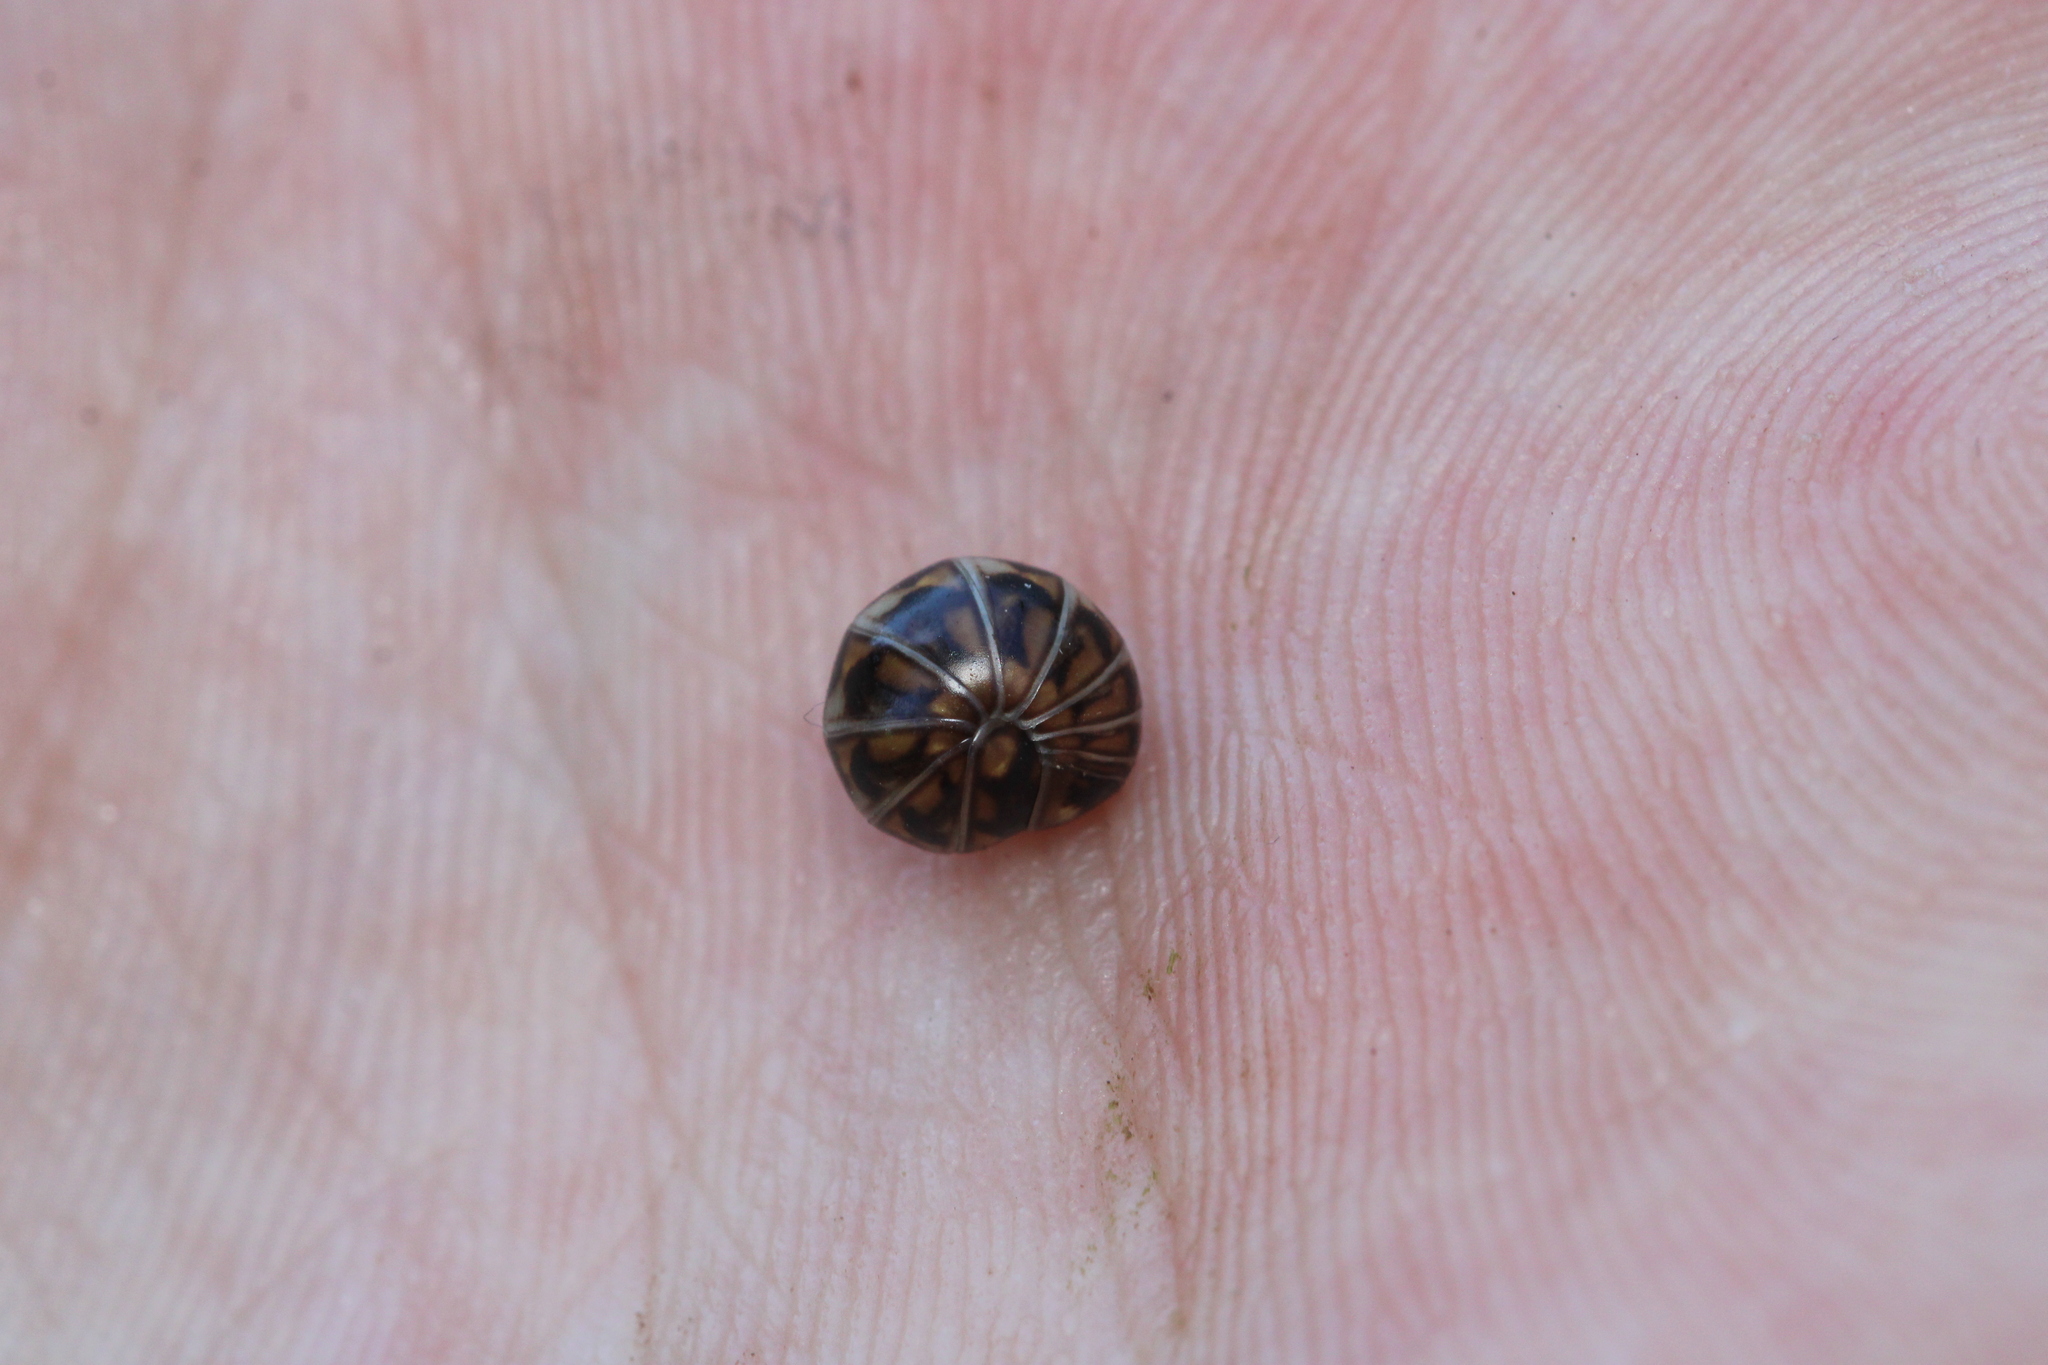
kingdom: Animalia
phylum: Arthropoda
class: Diplopoda
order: Glomerida
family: Glomeridae
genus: Glomeris
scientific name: Glomeris hexasticha
